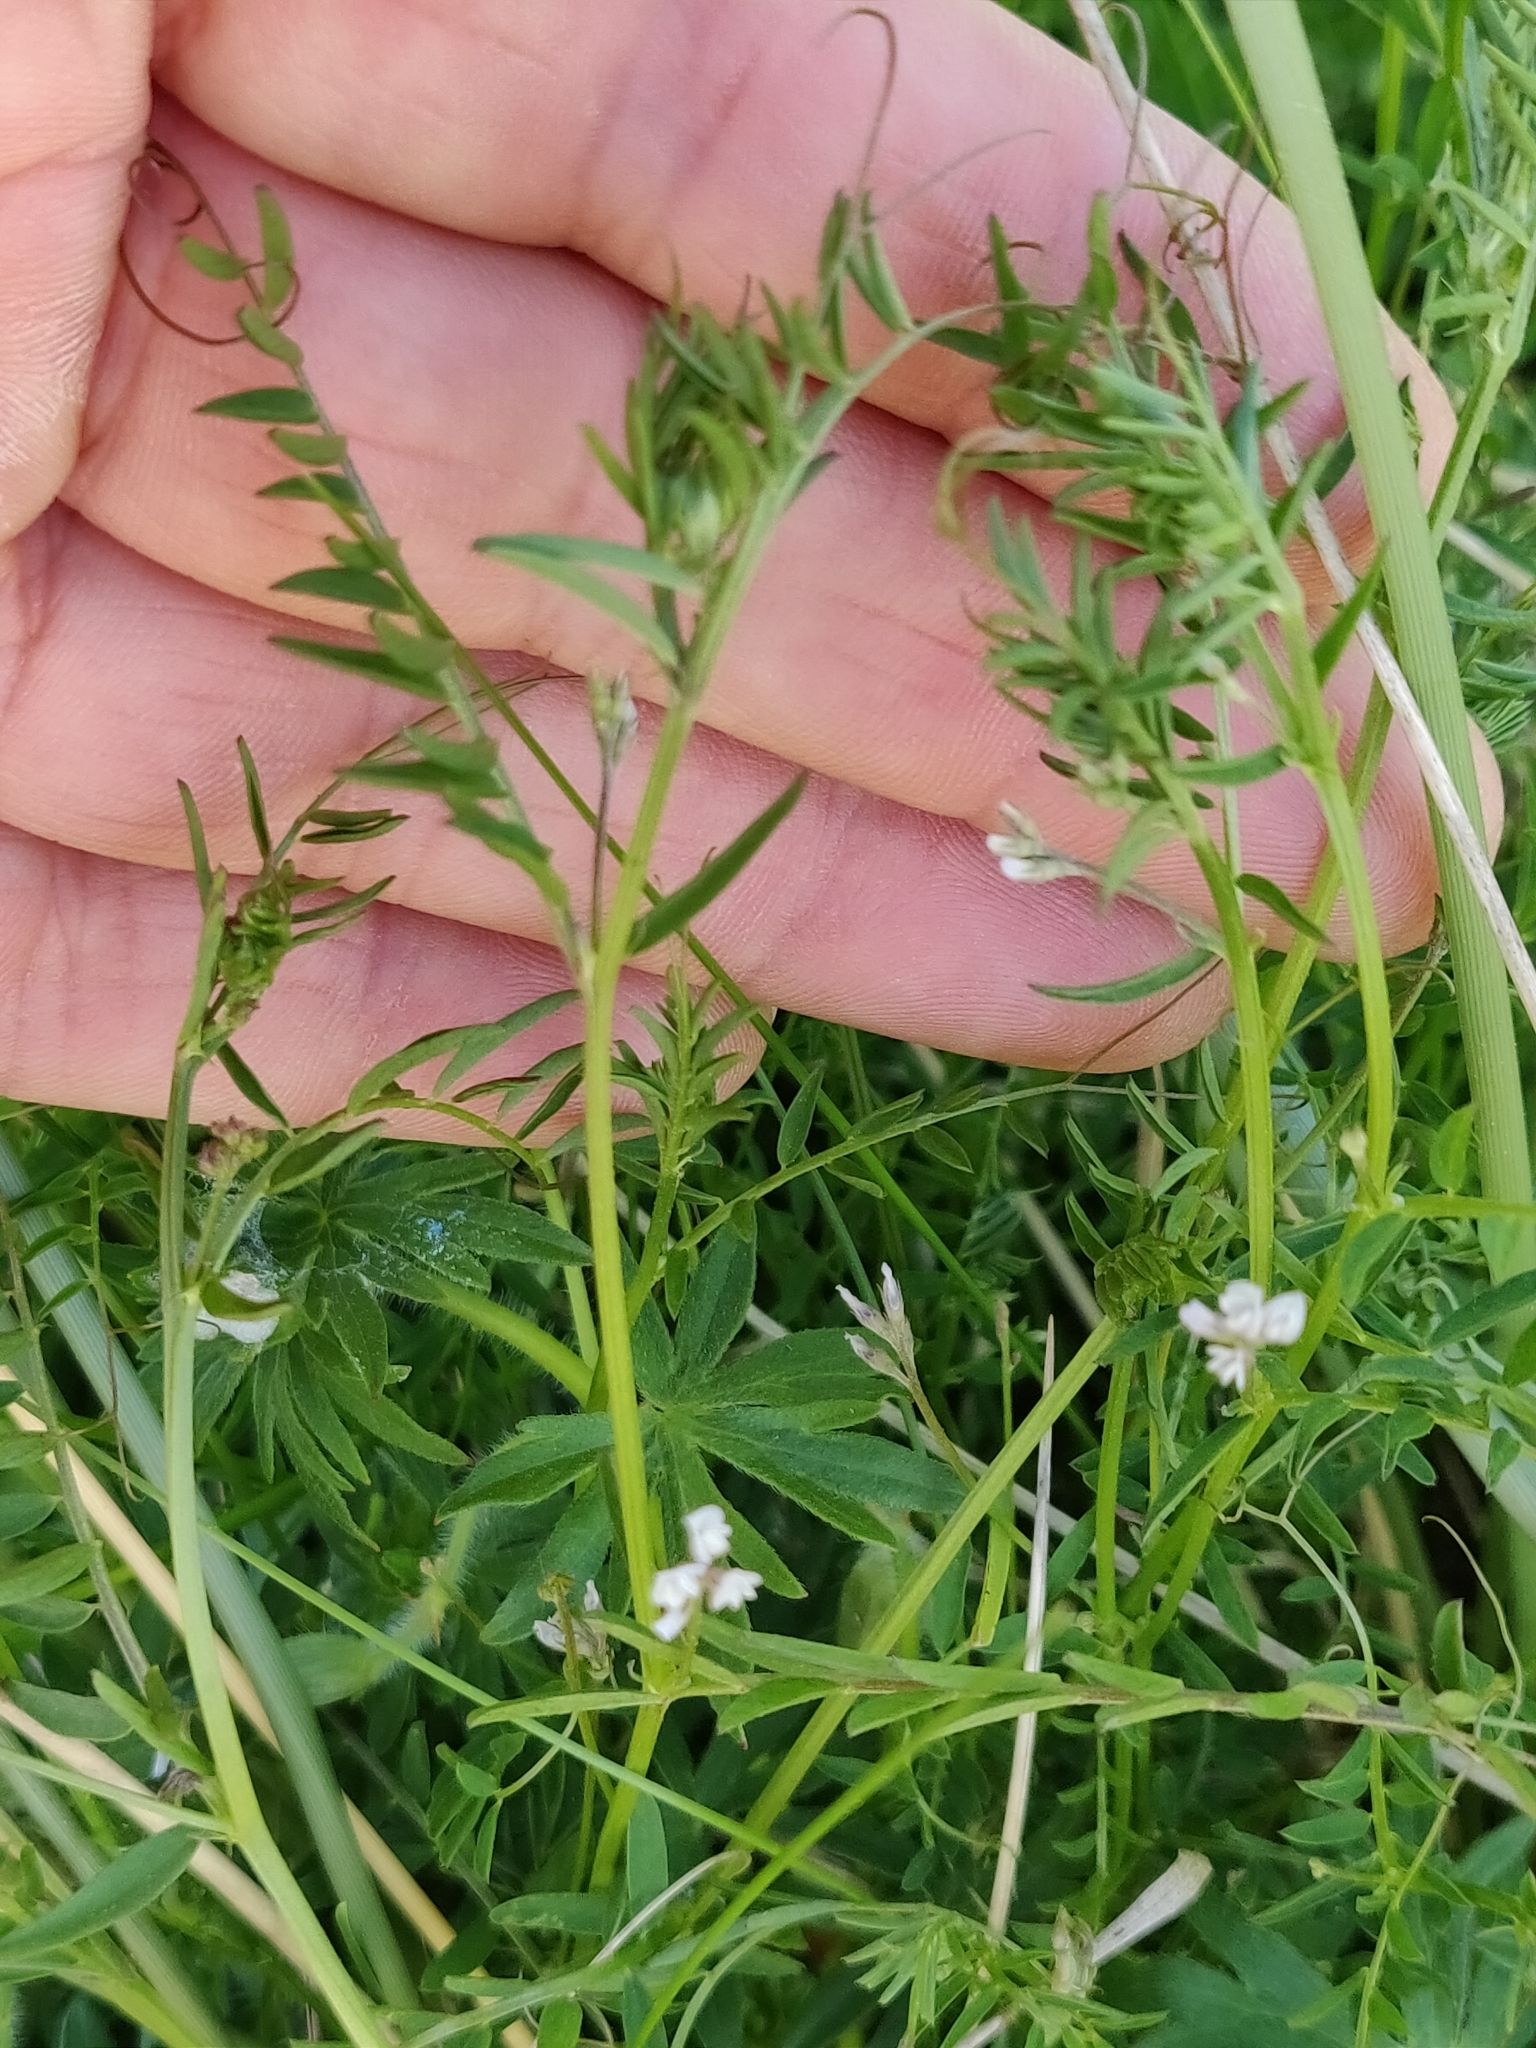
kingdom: Plantae
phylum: Tracheophyta
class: Magnoliopsida
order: Fabales
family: Fabaceae
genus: Vicia
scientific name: Vicia hirsuta
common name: Tiny vetch
